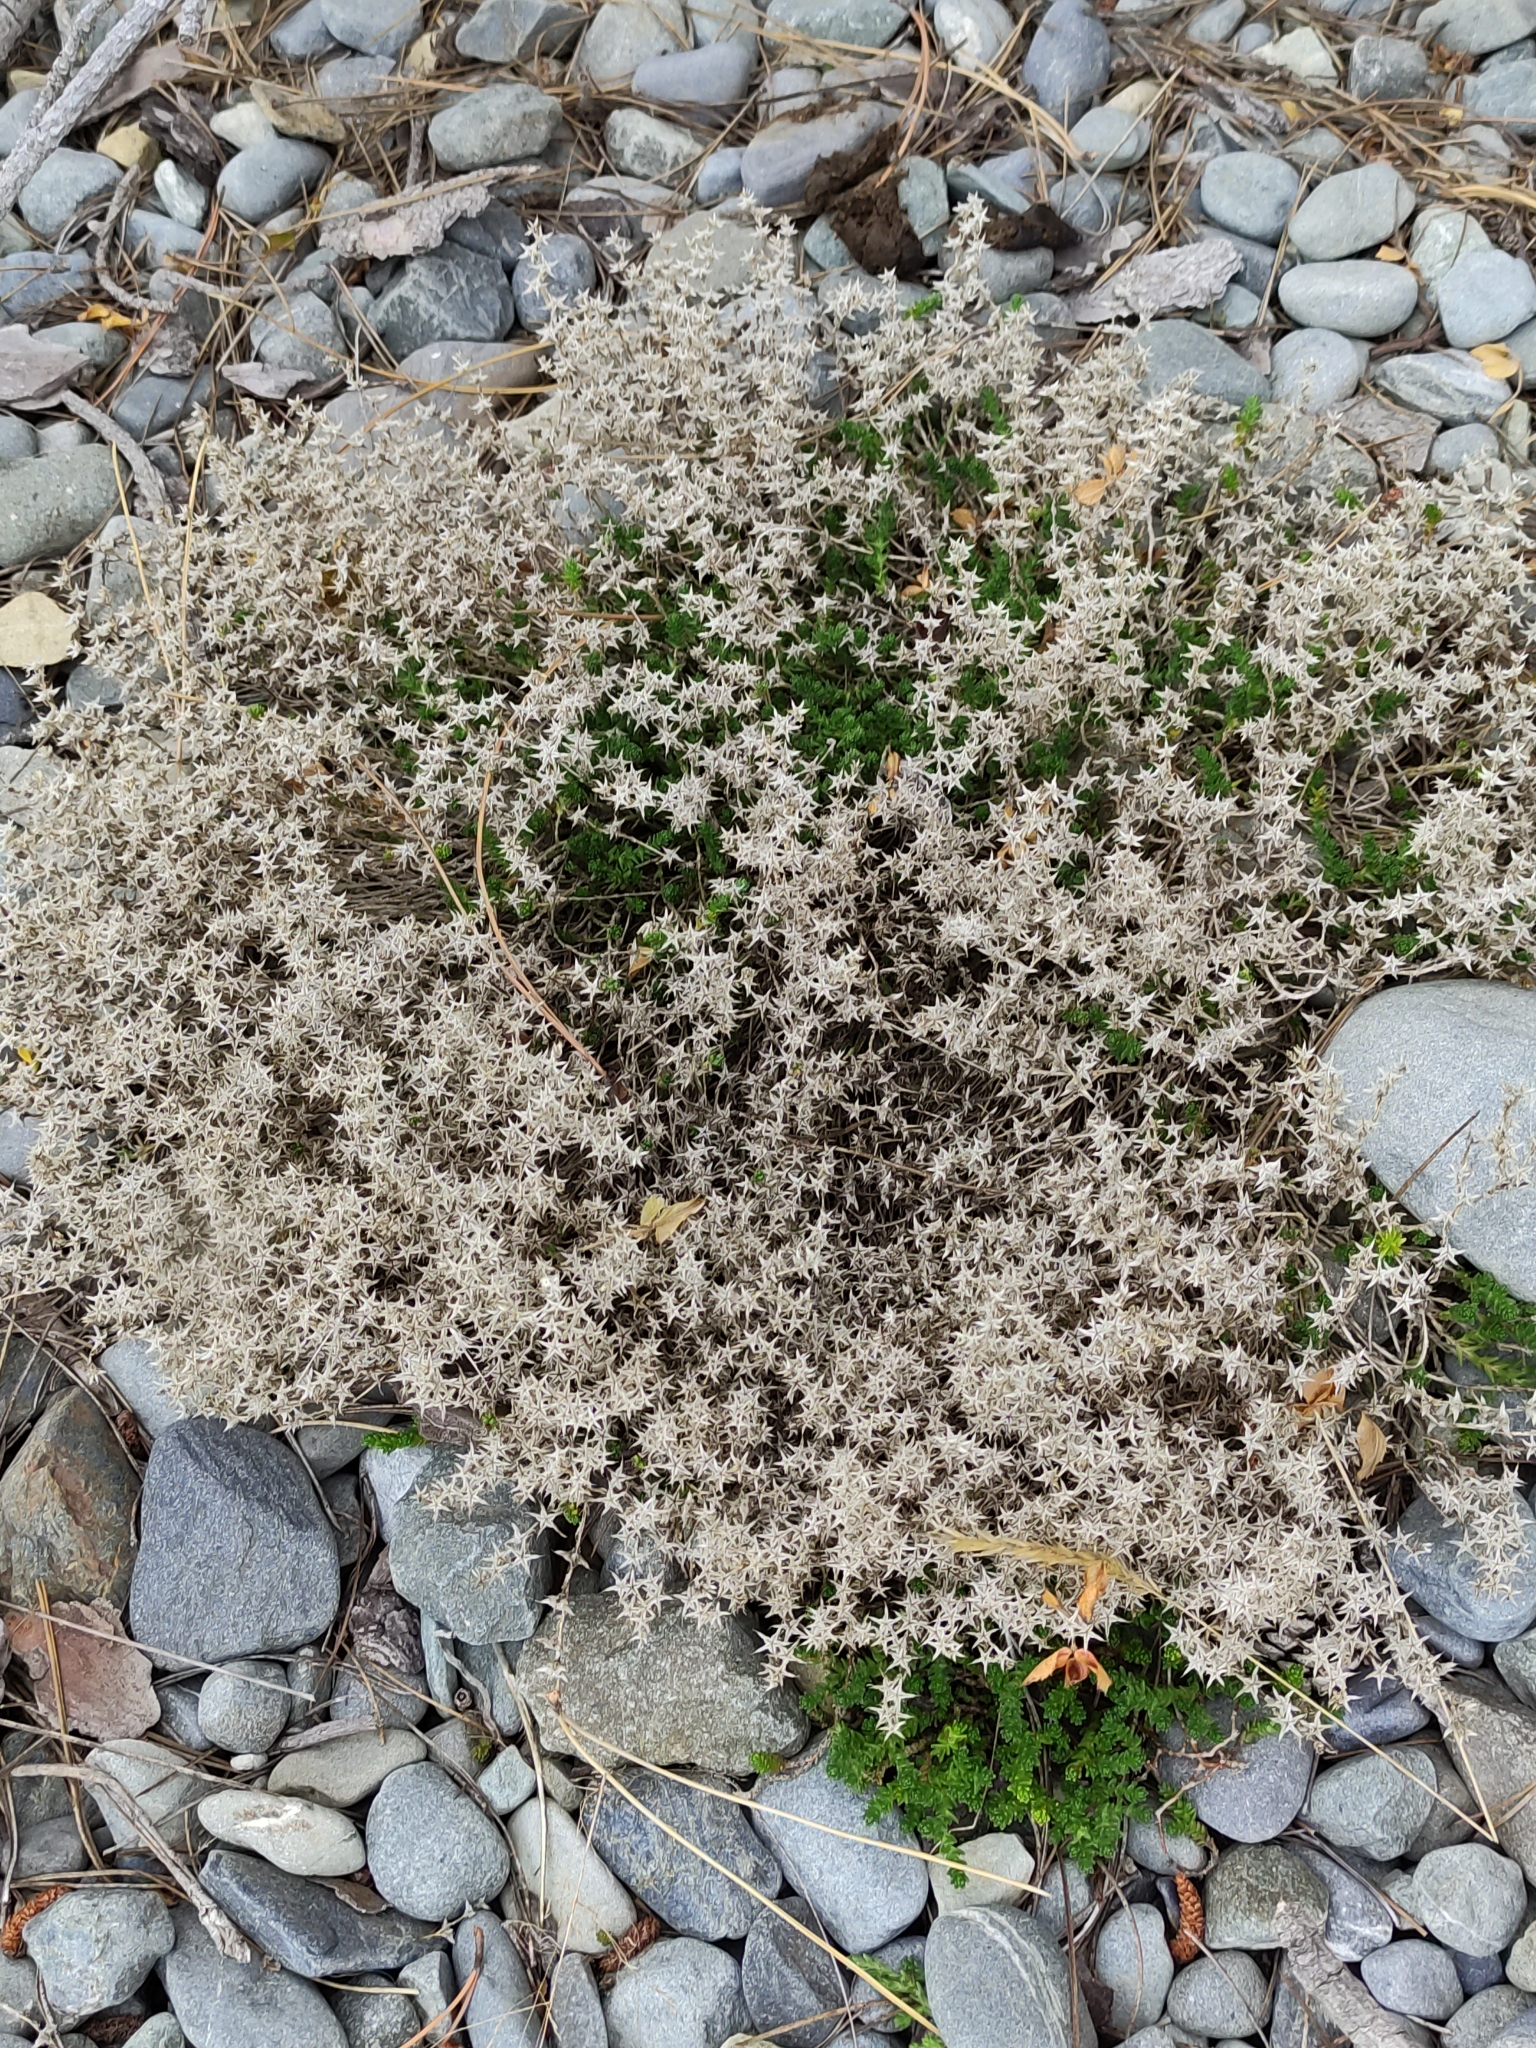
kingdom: Plantae
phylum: Tracheophyta
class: Magnoliopsida
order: Saxifragales
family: Crassulaceae
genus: Sedum
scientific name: Sedum acre
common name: Biting stonecrop
